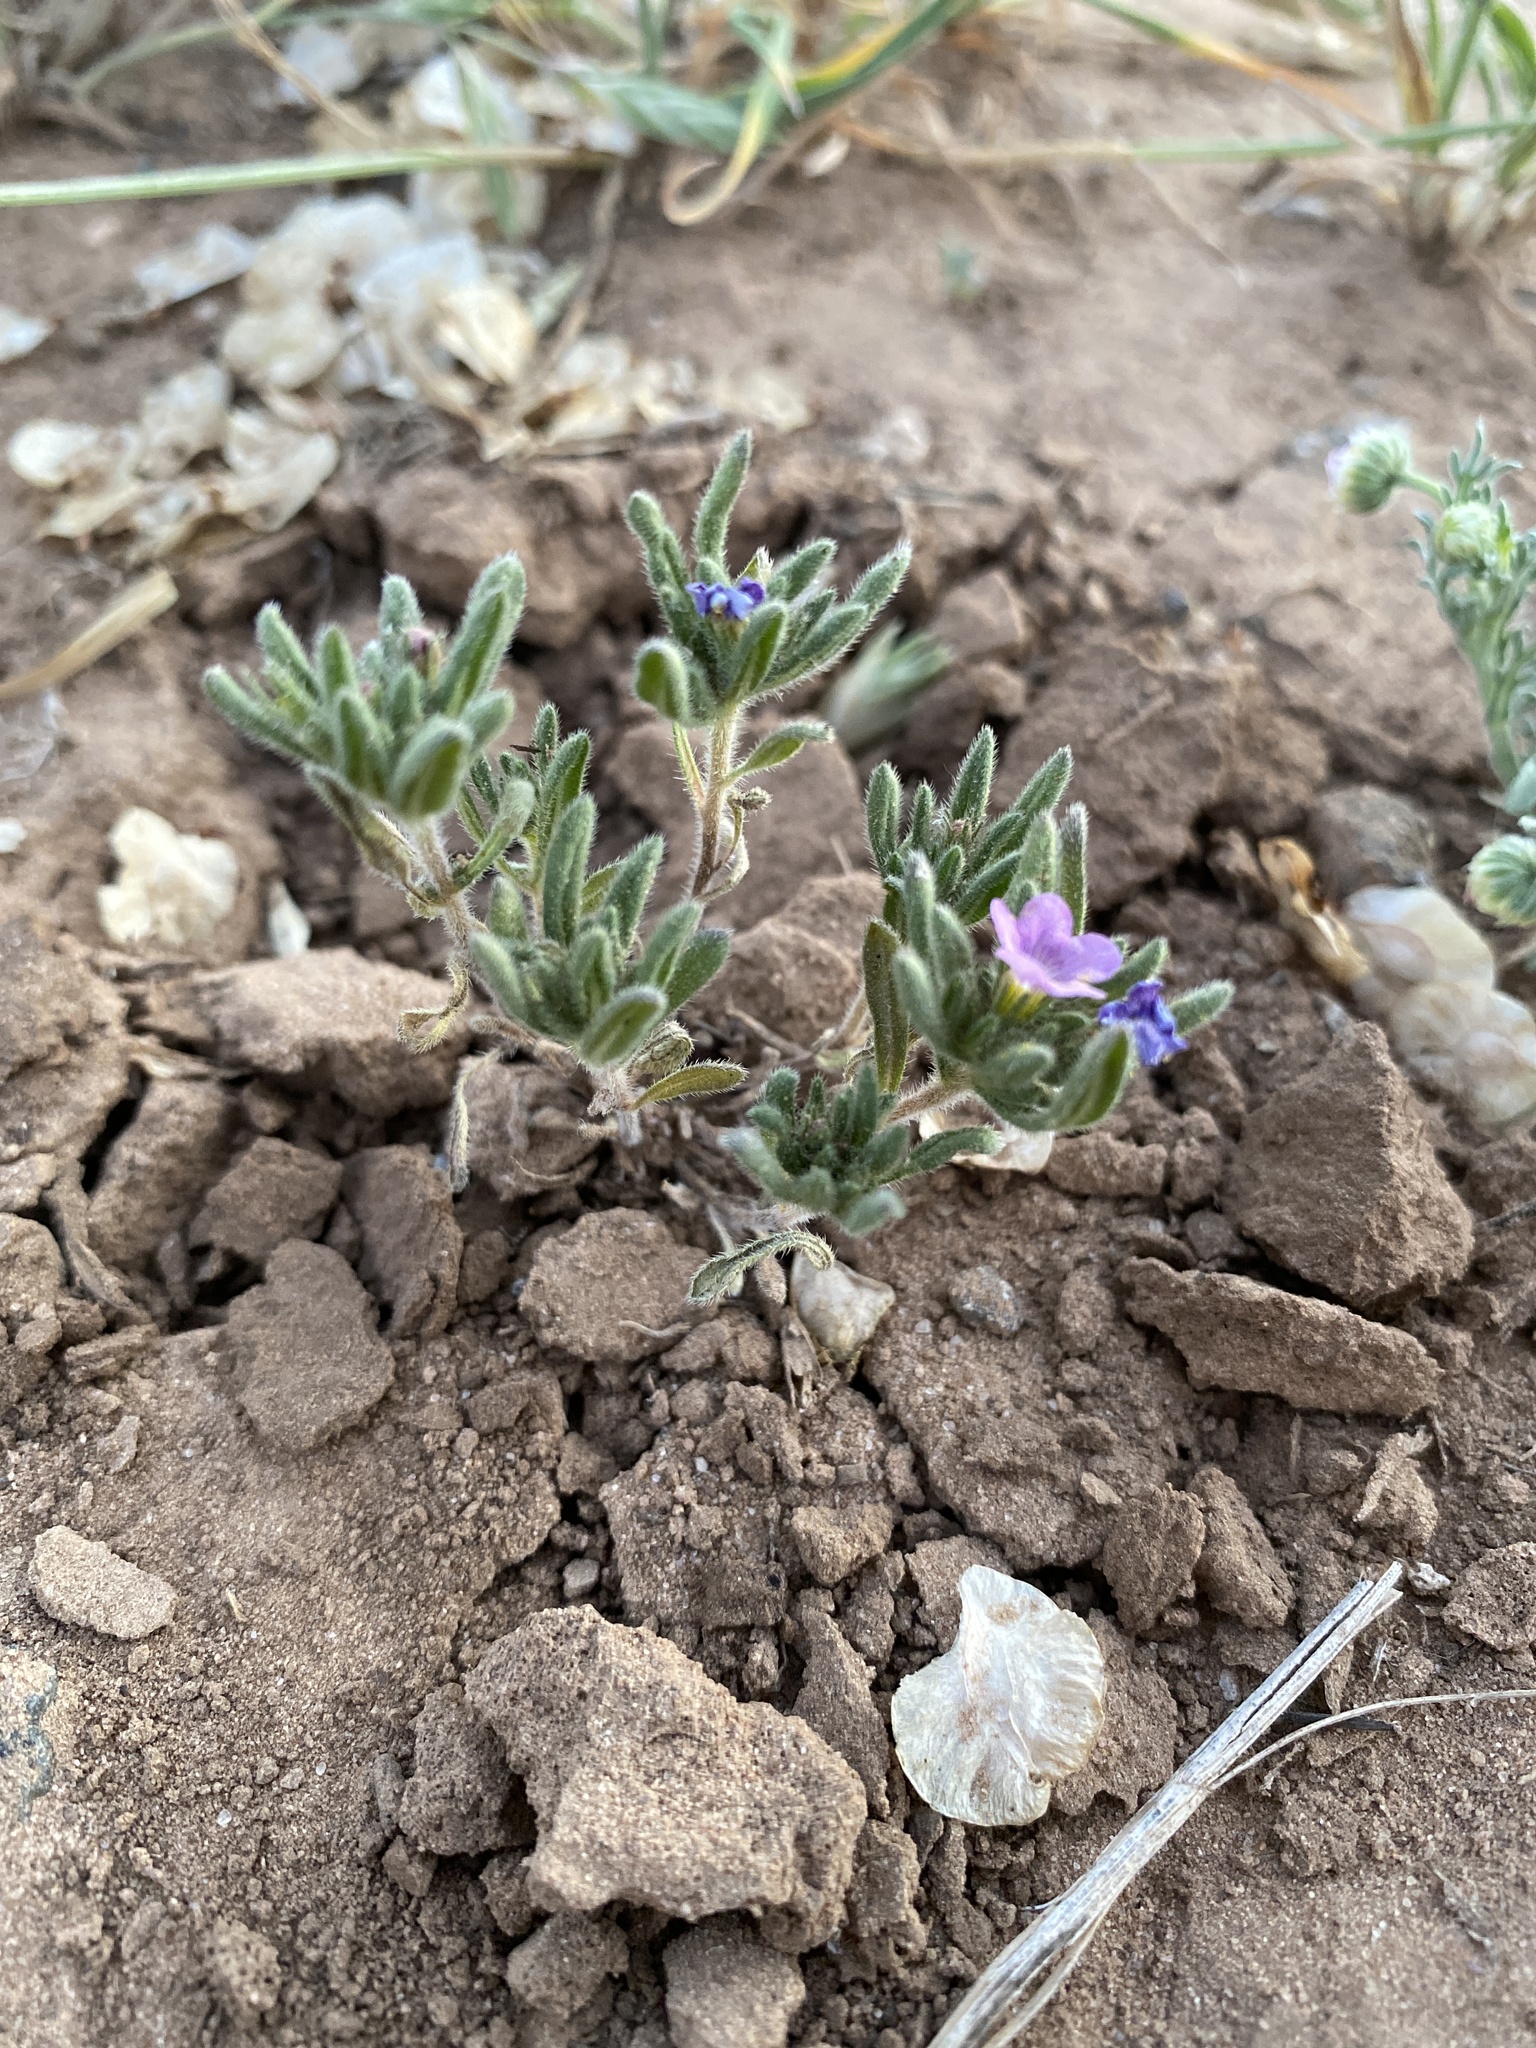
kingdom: Plantae
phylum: Tracheophyta
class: Magnoliopsida
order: Boraginales
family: Namaceae
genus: Nama
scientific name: Nama hispida
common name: Bristly nama
